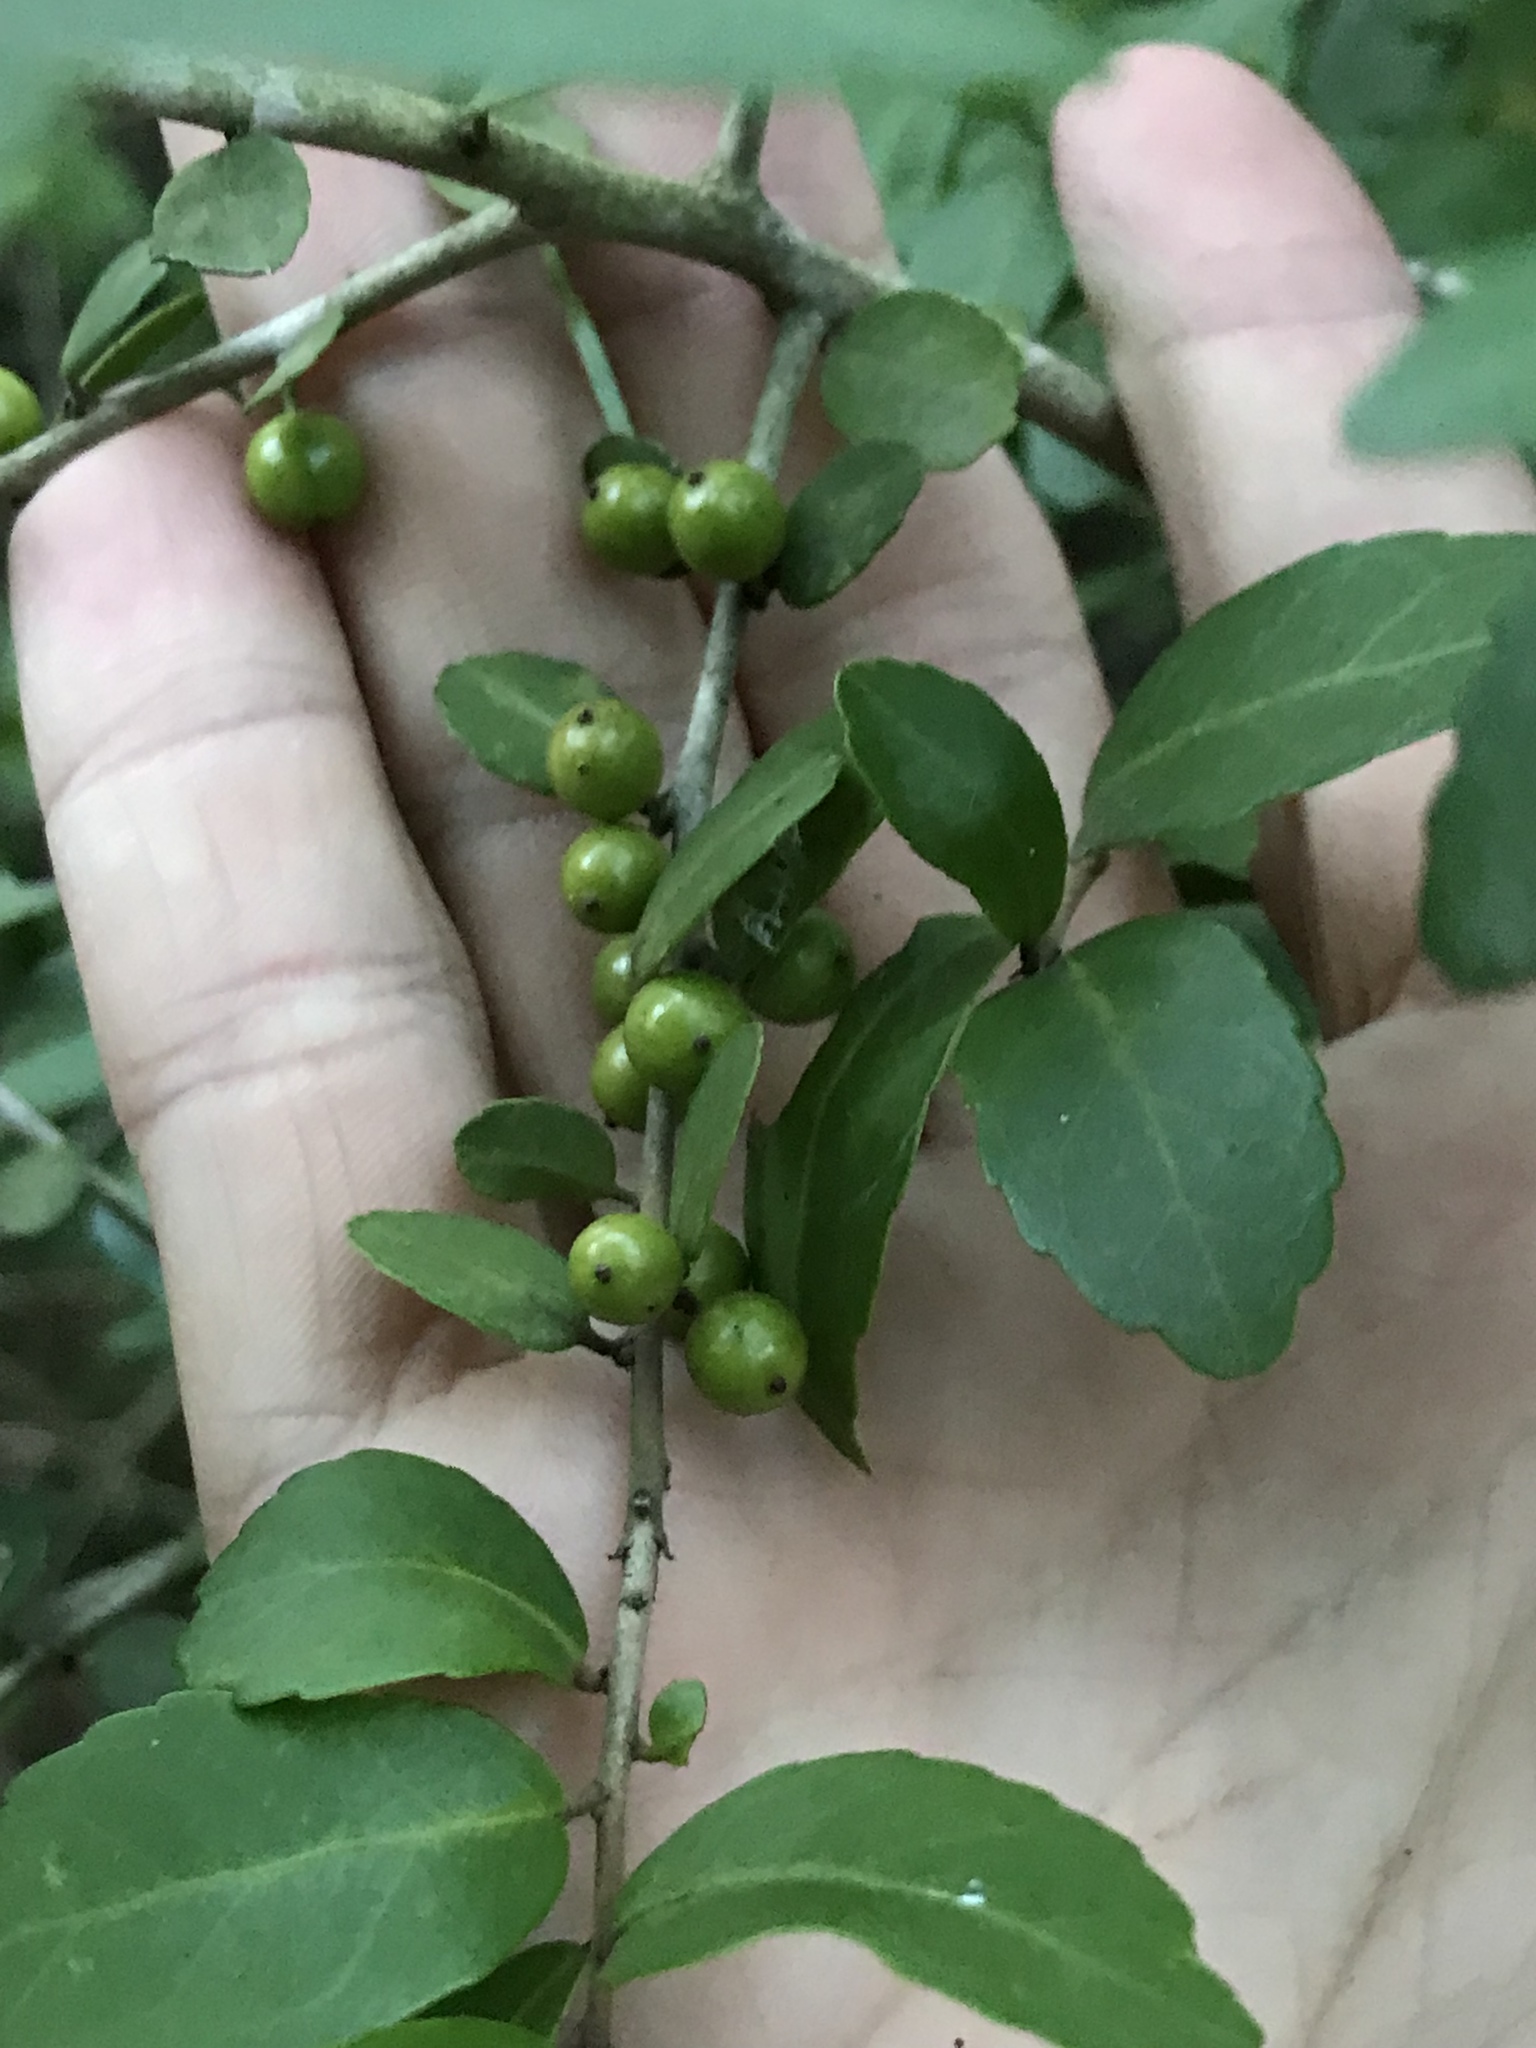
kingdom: Plantae
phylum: Tracheophyta
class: Magnoliopsida
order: Aquifoliales
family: Aquifoliaceae
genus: Ilex
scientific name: Ilex vomitoria
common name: Yaupon holly
